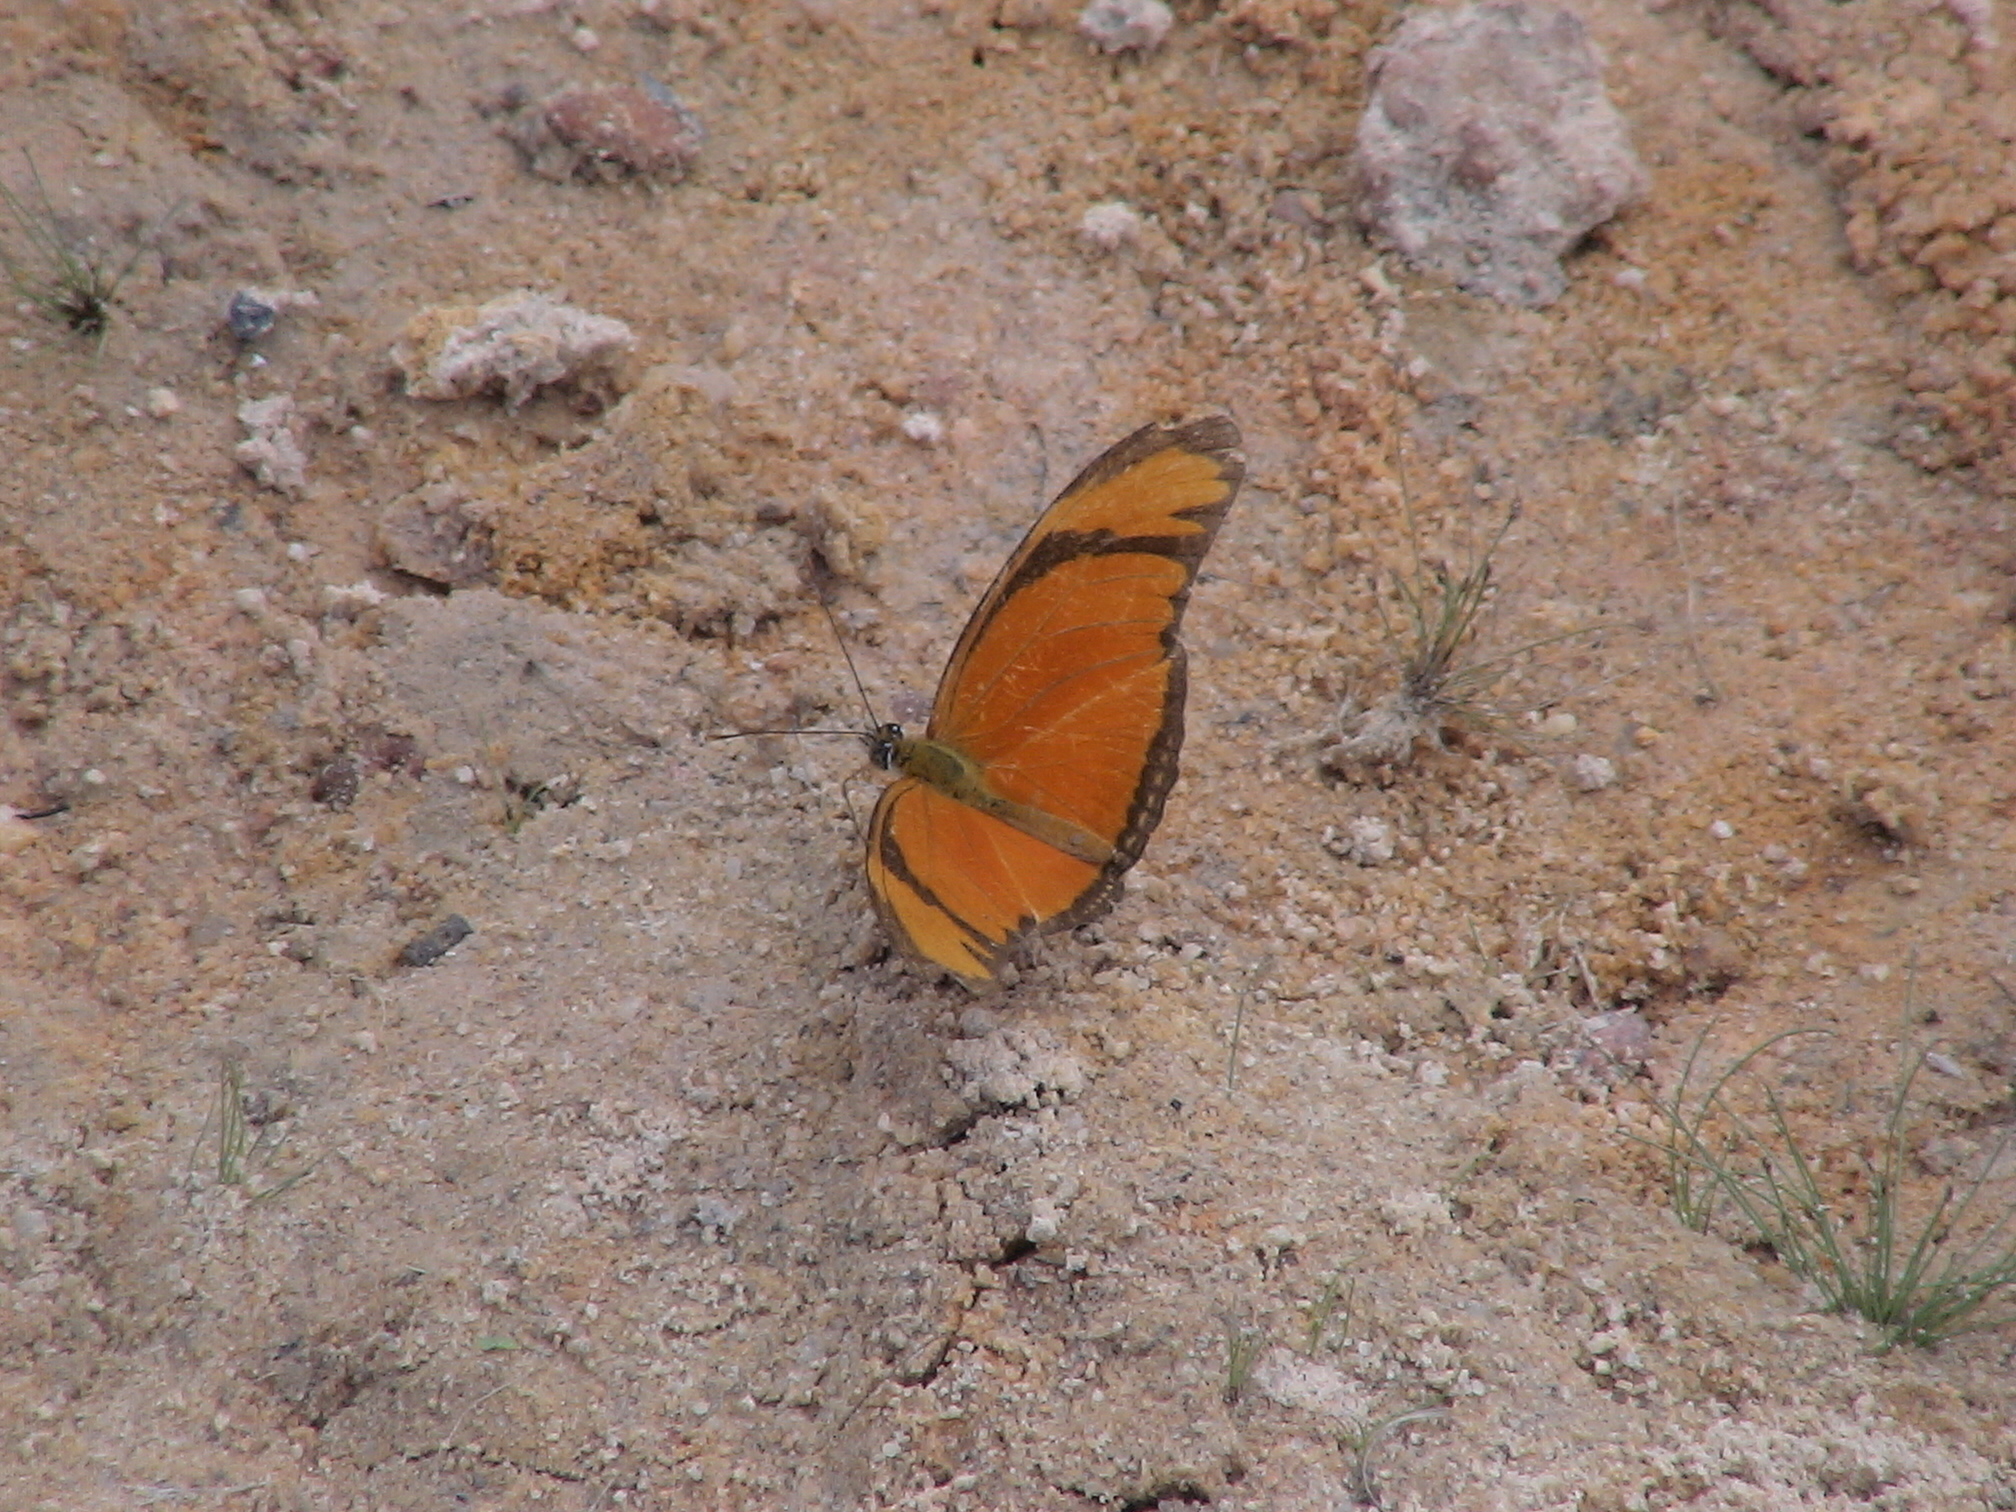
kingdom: Animalia
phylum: Arthropoda
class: Insecta
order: Lepidoptera
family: Nymphalidae
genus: Dryas
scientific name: Dryas iulia
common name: Flambeau
